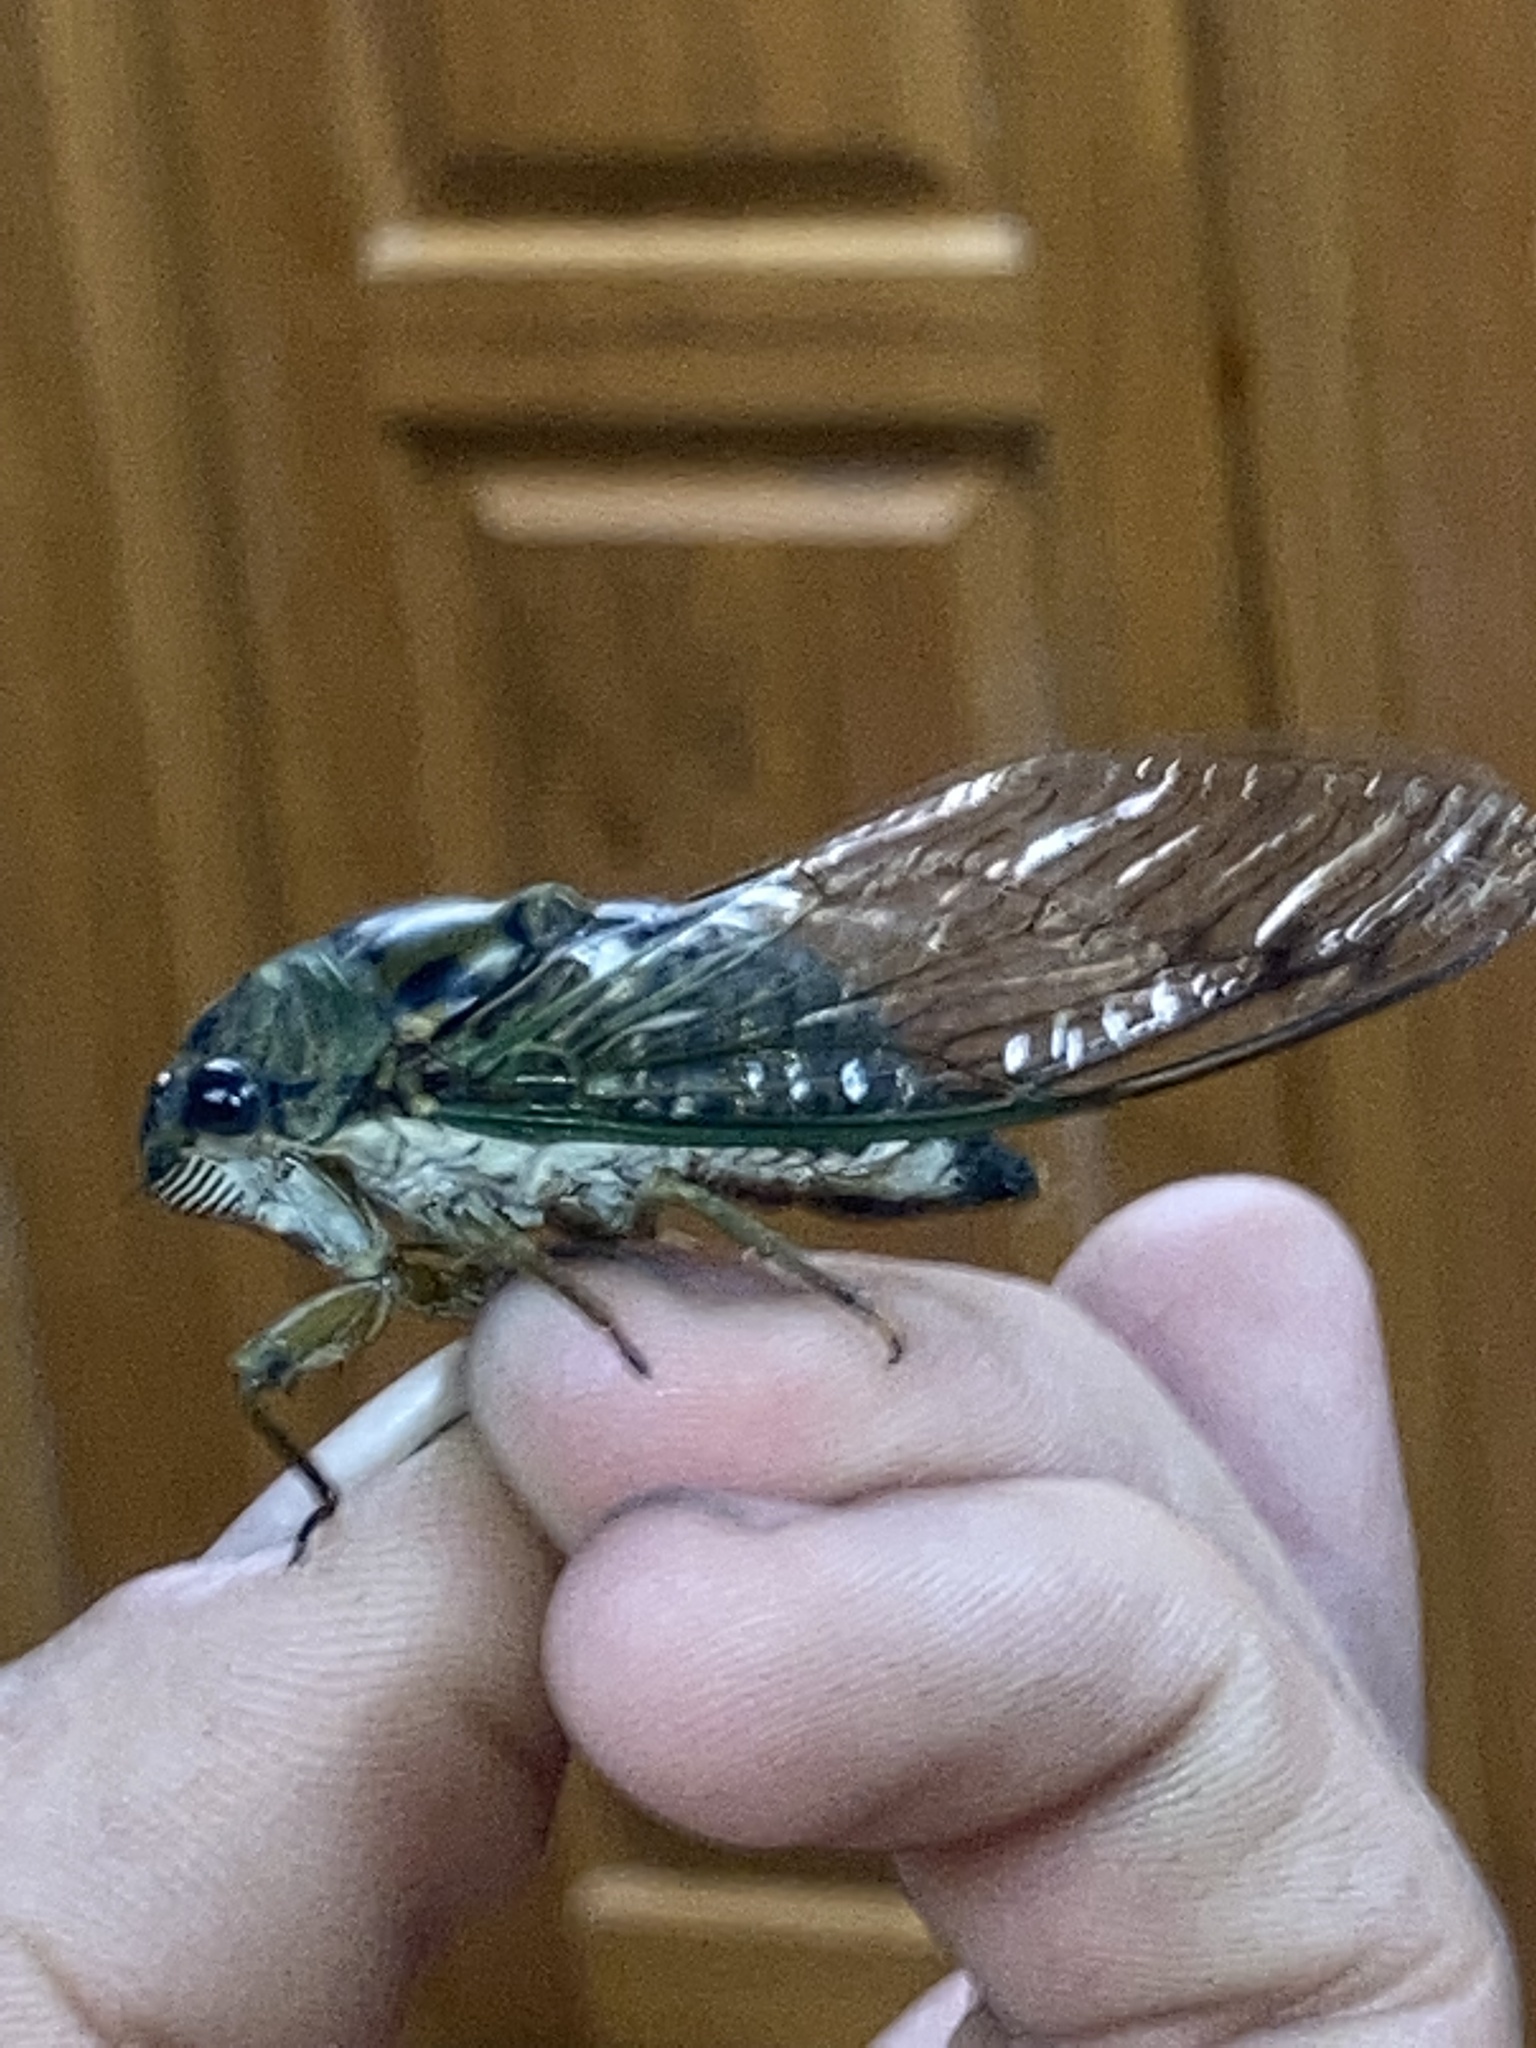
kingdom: Animalia
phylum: Arthropoda
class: Insecta
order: Hemiptera
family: Cicadidae
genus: Neotibicen
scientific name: Neotibicen pruinosus
